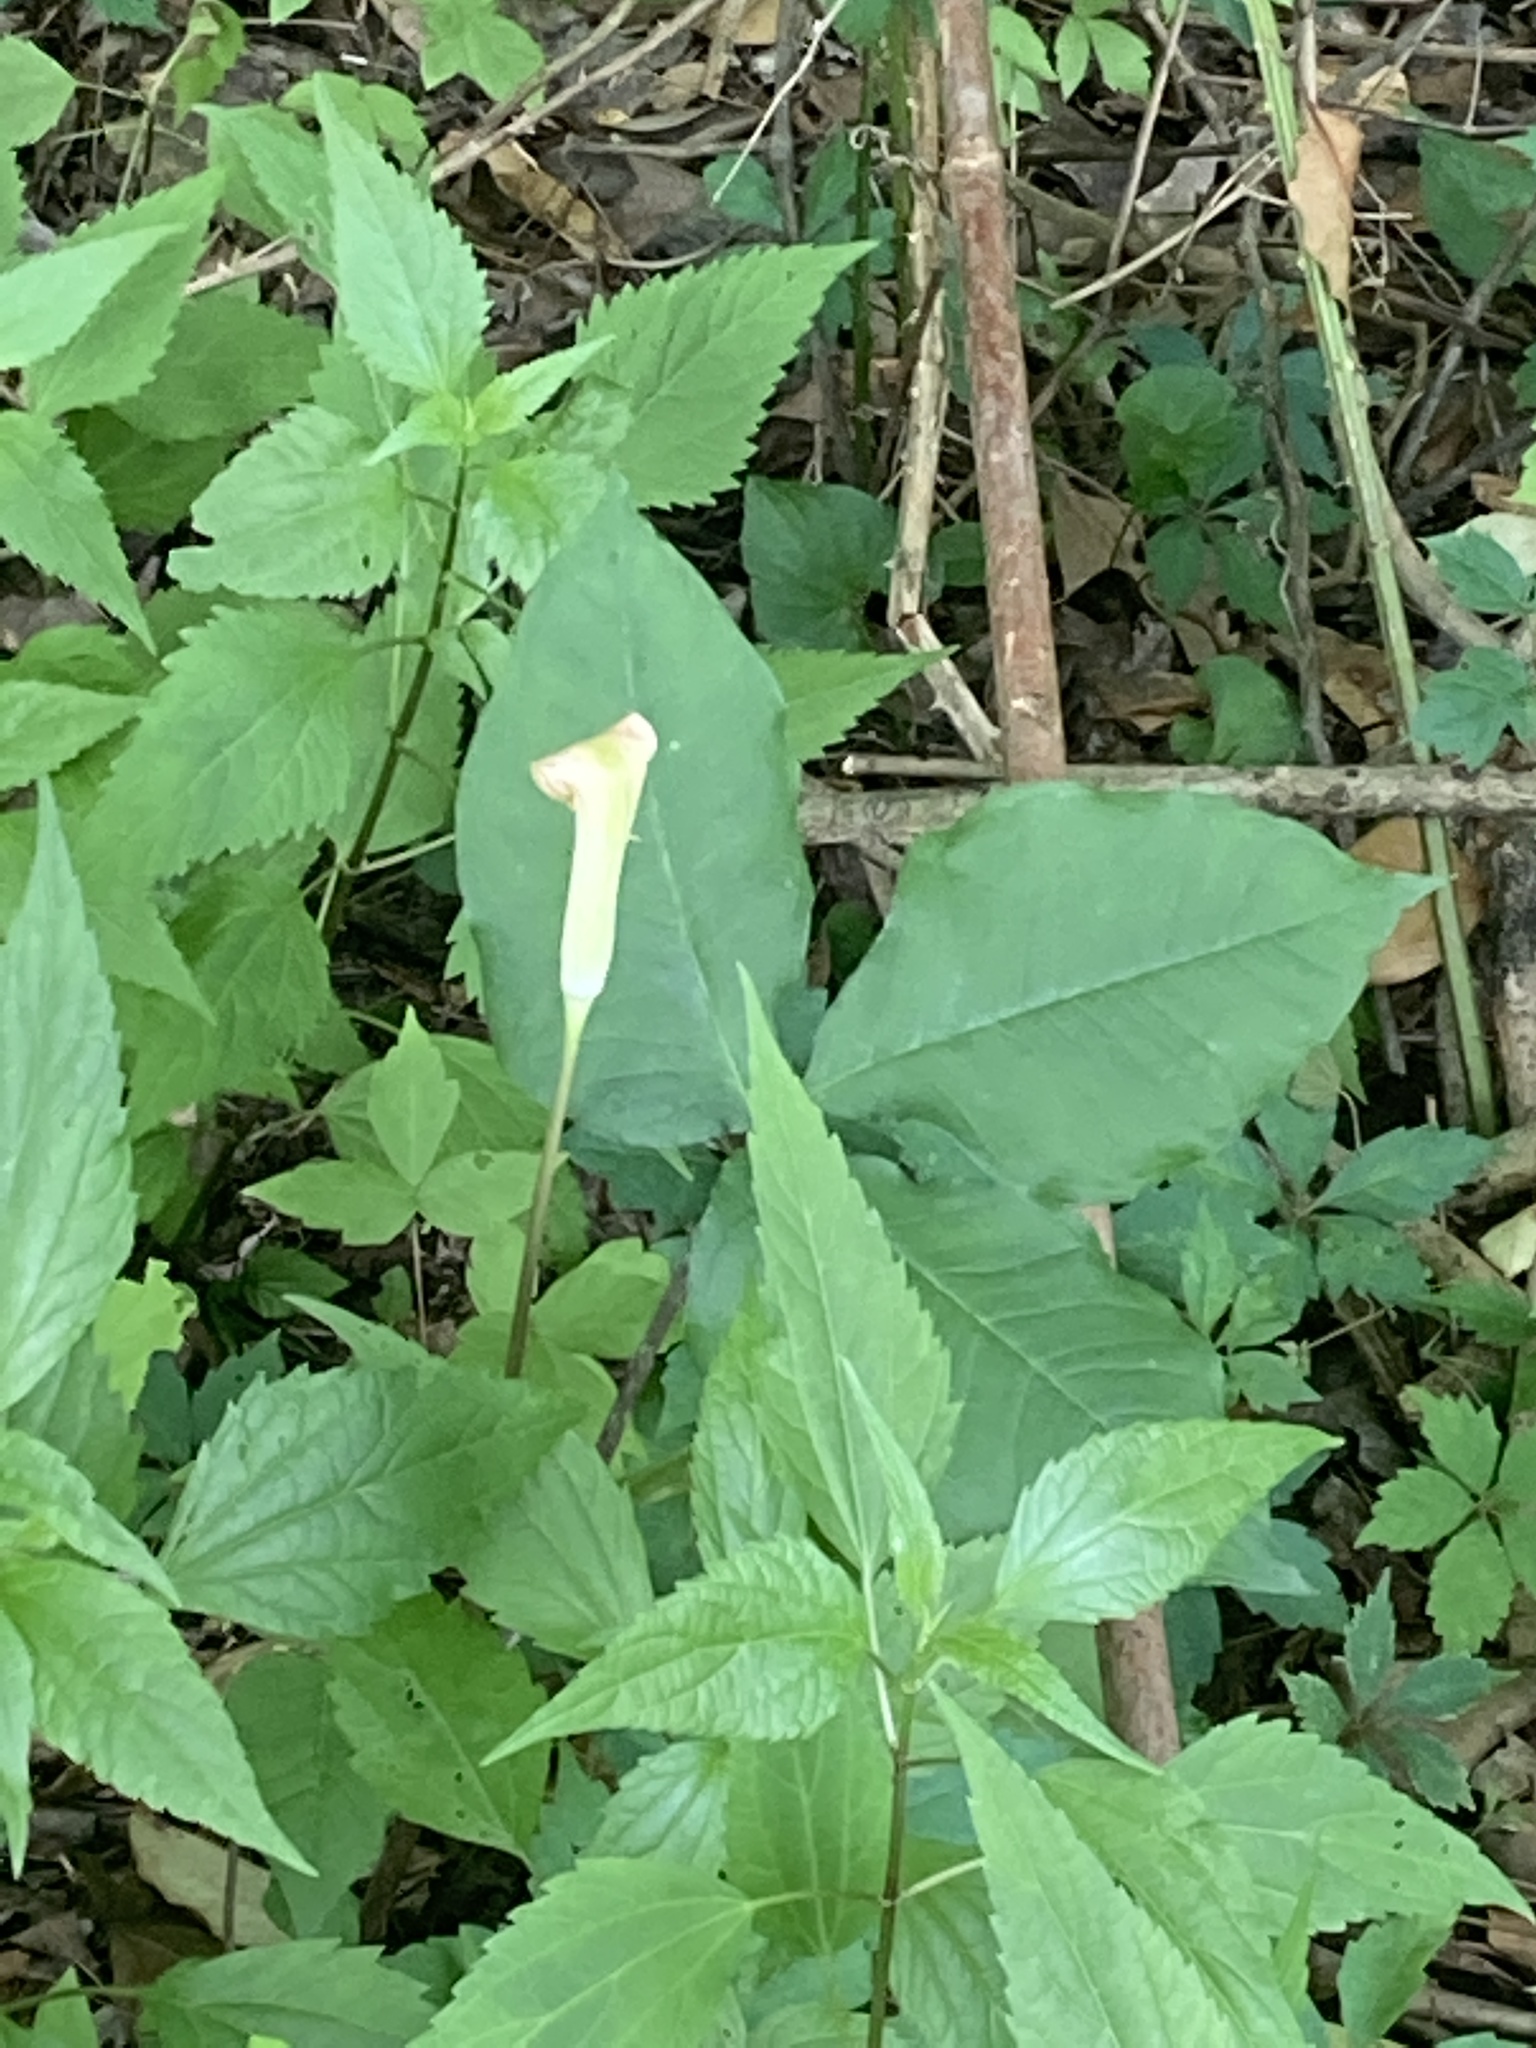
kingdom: Plantae
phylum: Tracheophyta
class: Liliopsida
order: Alismatales
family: Araceae
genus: Arisaema
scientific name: Arisaema triphyllum
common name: Jack-in-the-pulpit
